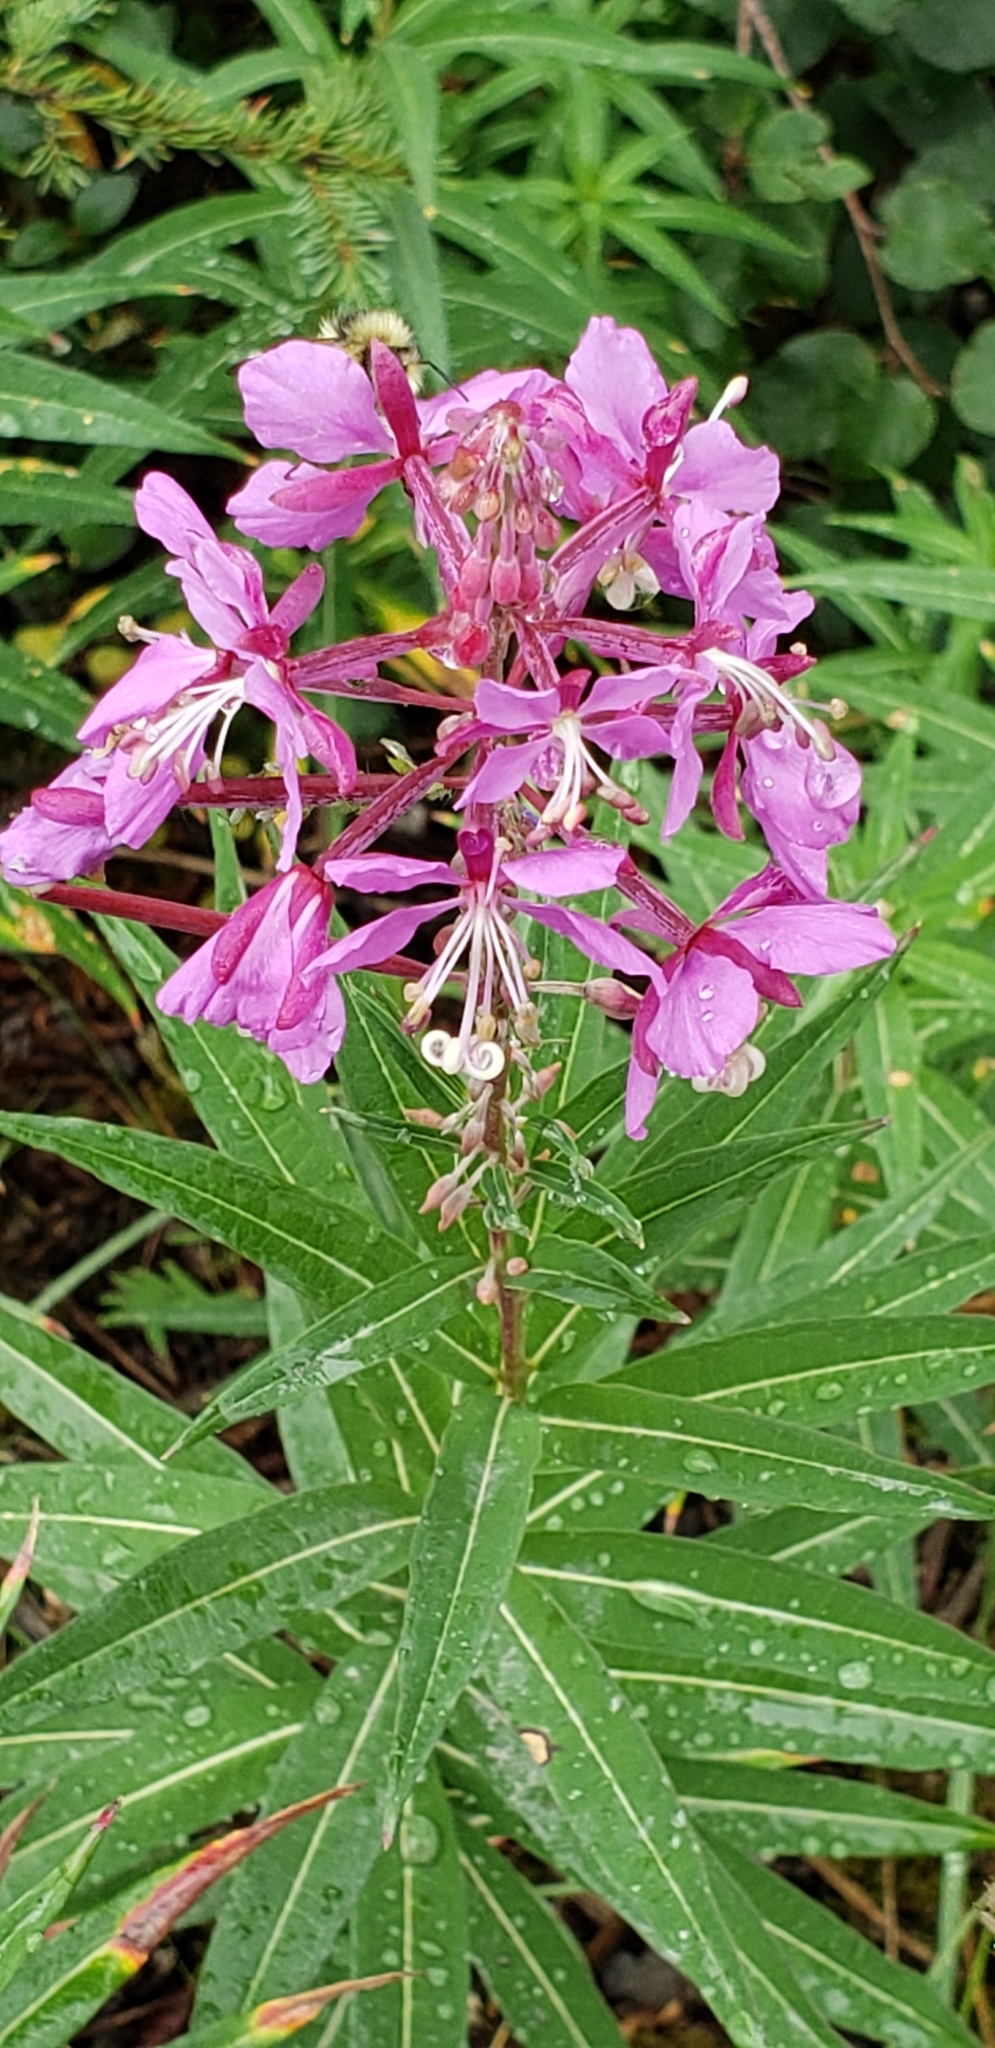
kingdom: Plantae
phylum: Tracheophyta
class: Magnoliopsida
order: Myrtales
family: Onagraceae
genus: Chamaenerion
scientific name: Chamaenerion angustifolium
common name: Fireweed
